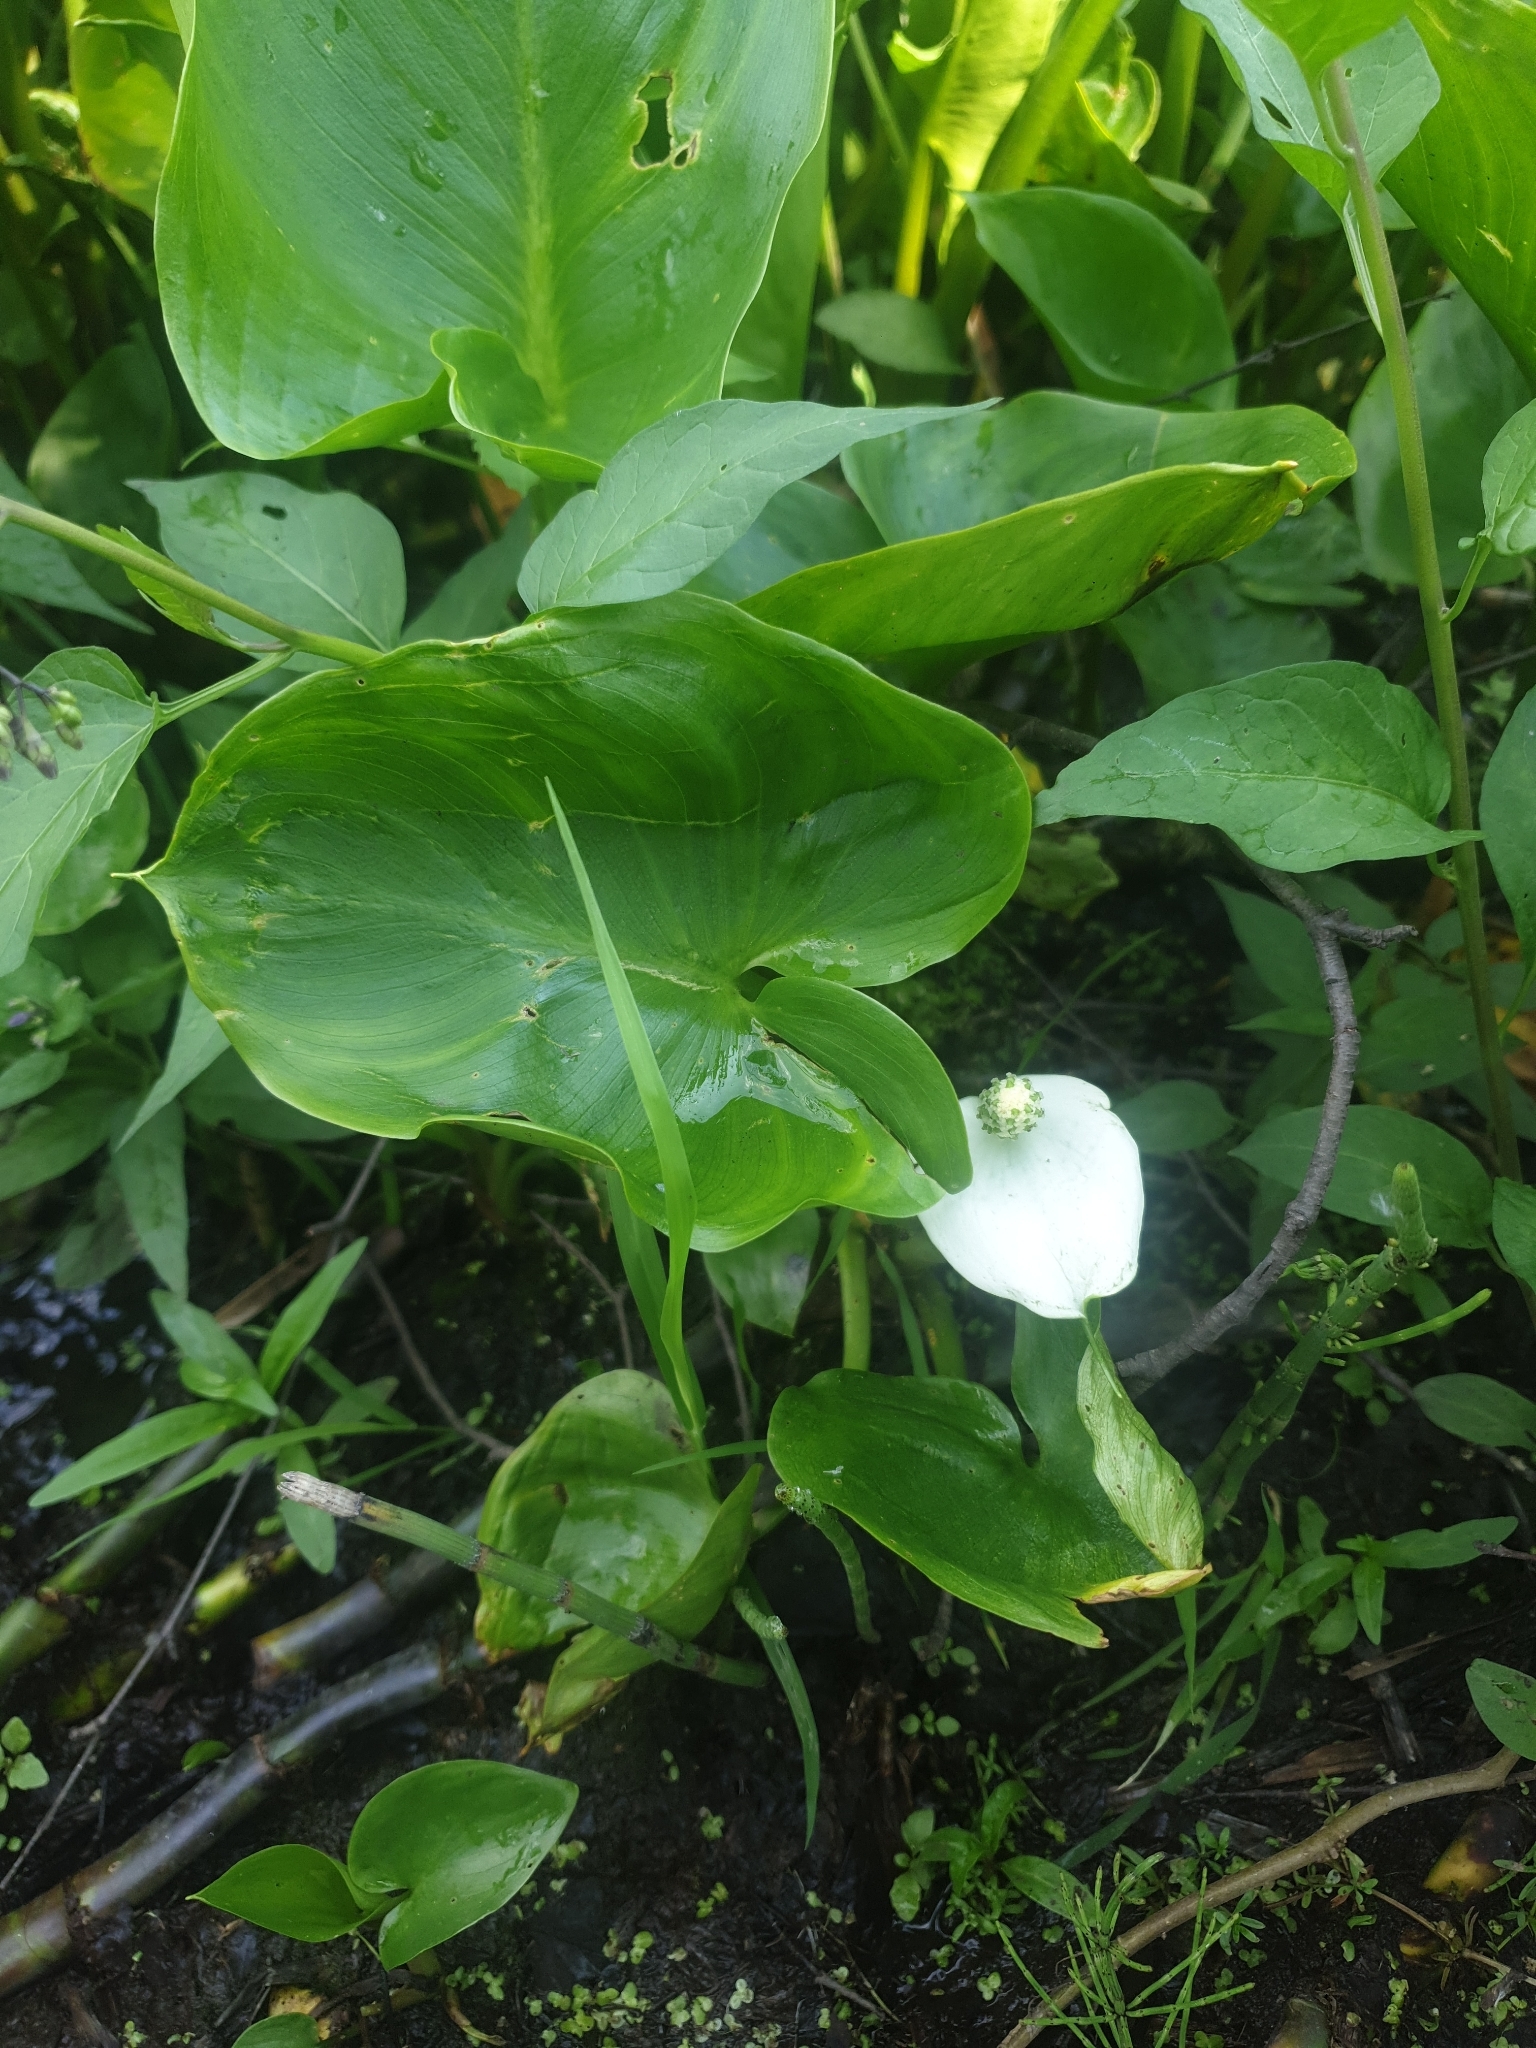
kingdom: Plantae
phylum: Tracheophyta
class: Liliopsida
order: Alismatales
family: Araceae
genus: Calla
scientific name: Calla palustris
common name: Bog arum
